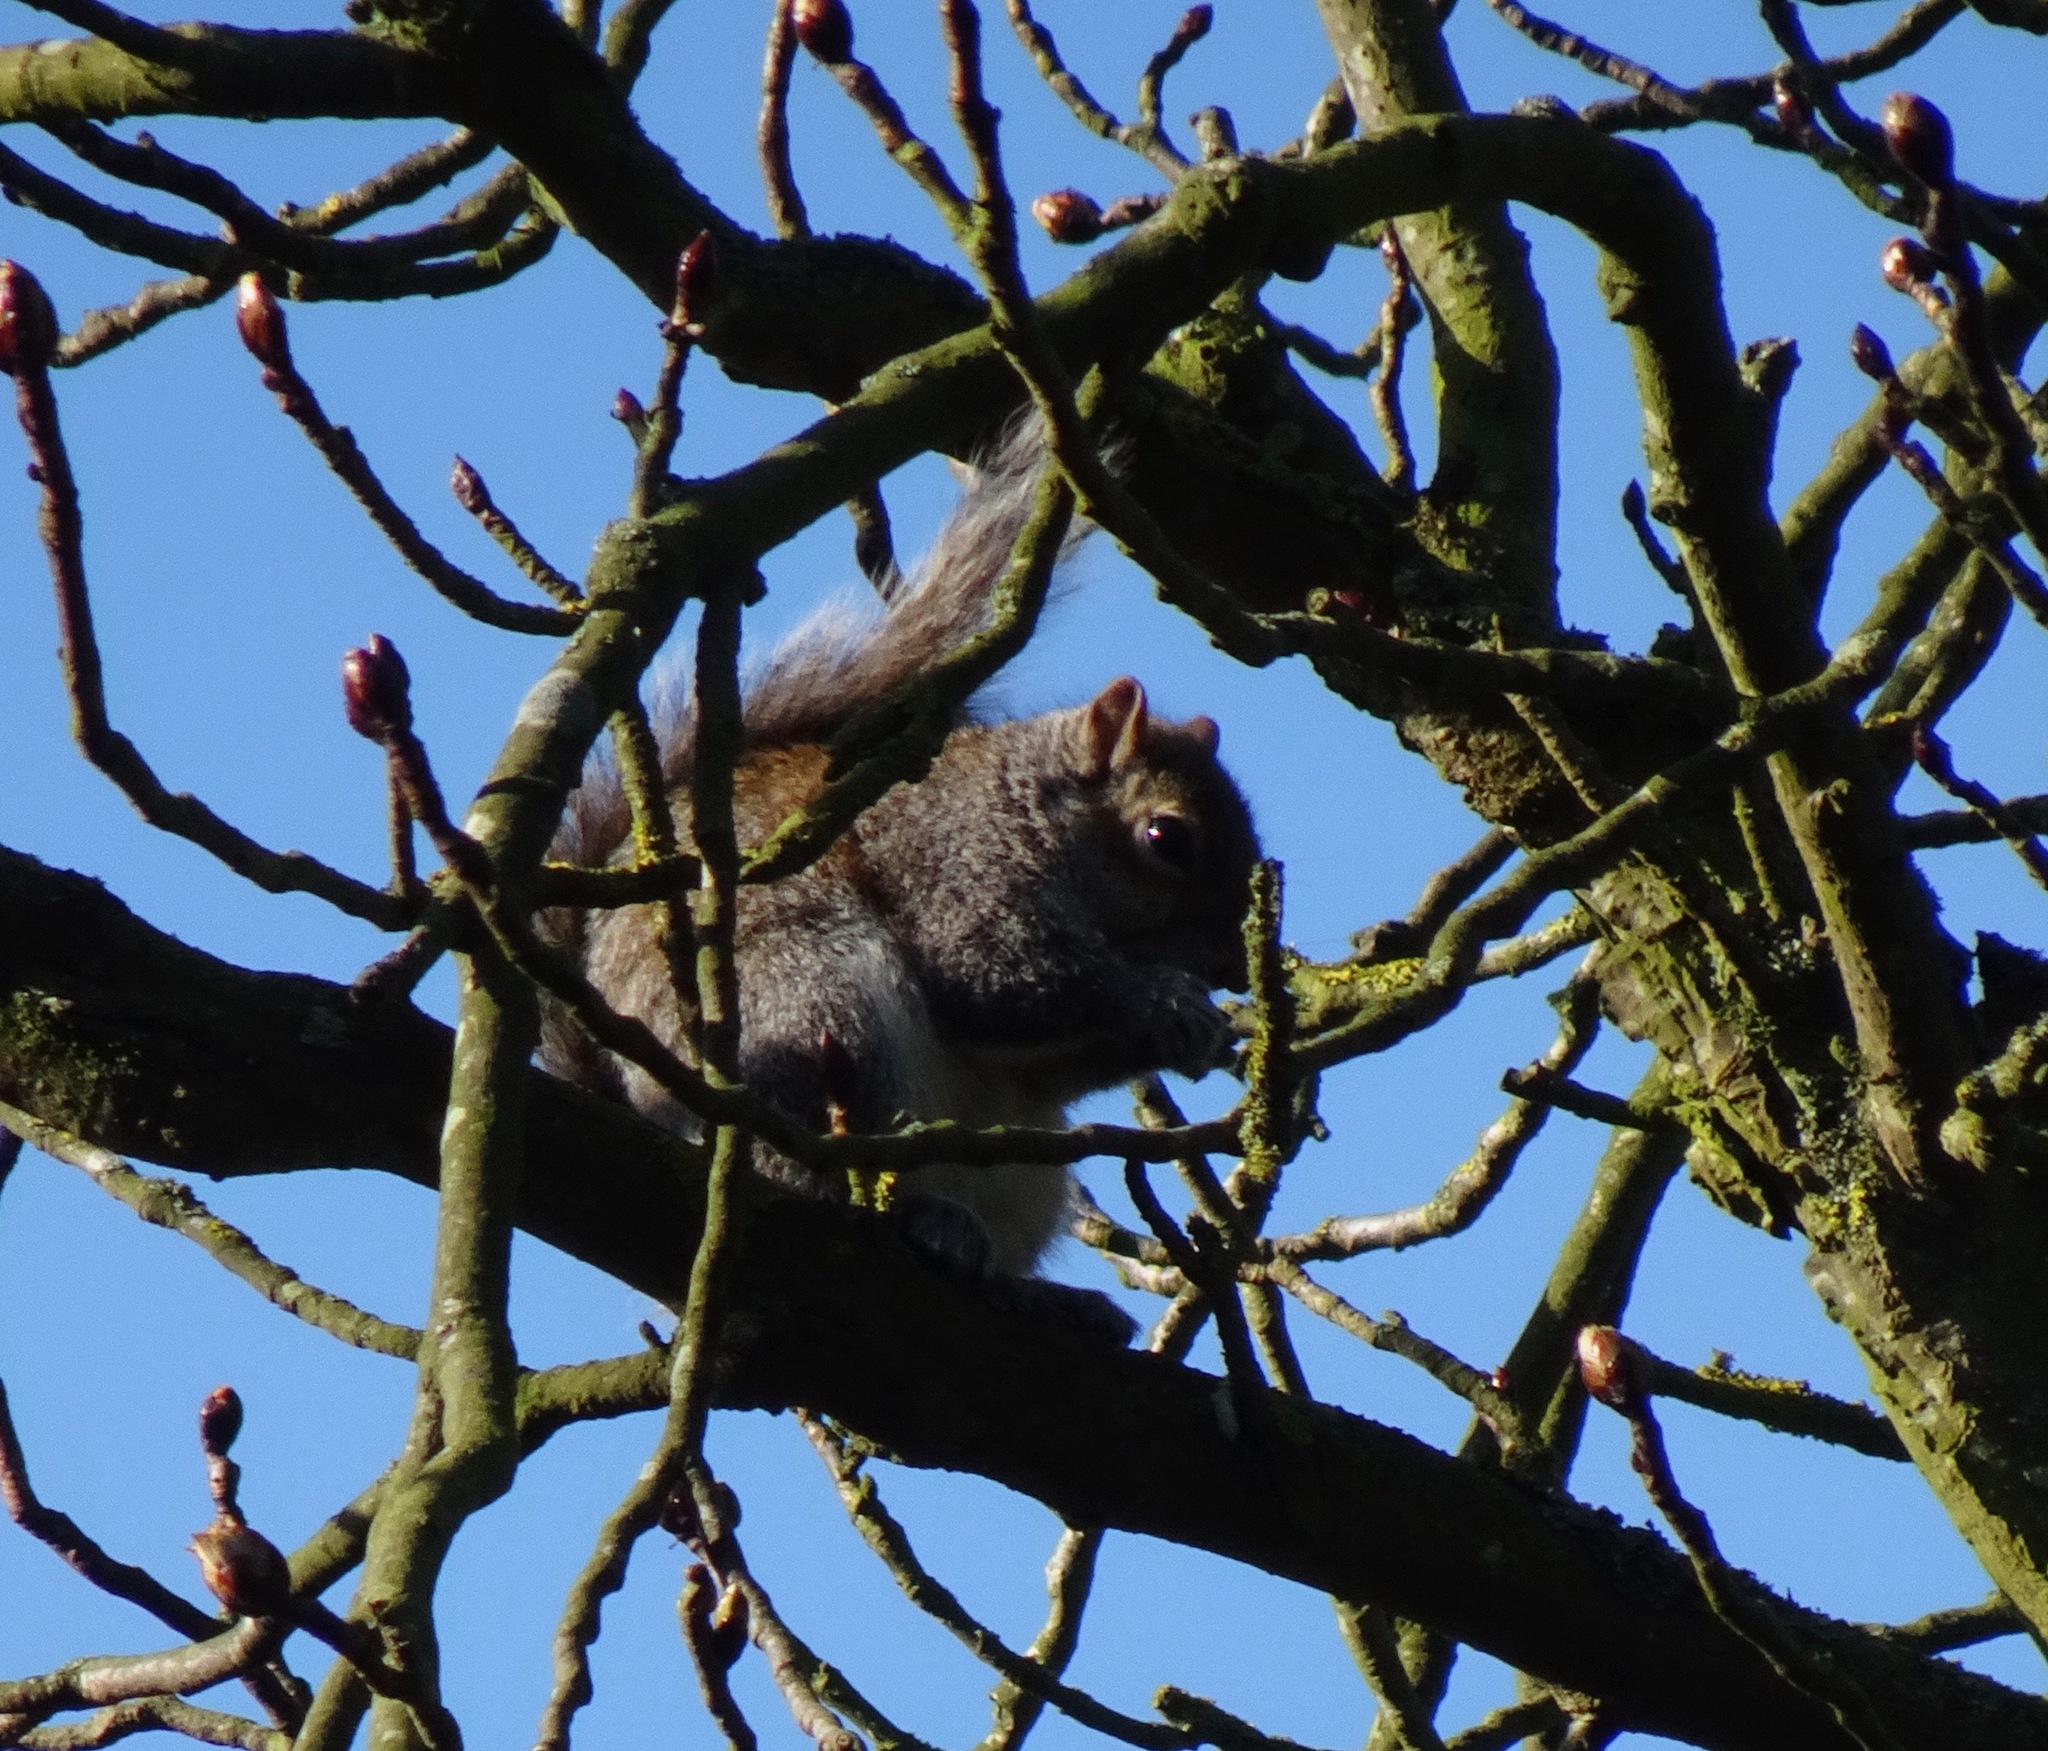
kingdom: Animalia
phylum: Chordata
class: Mammalia
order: Rodentia
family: Sciuridae
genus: Sciurus
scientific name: Sciurus carolinensis
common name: Eastern gray squirrel
